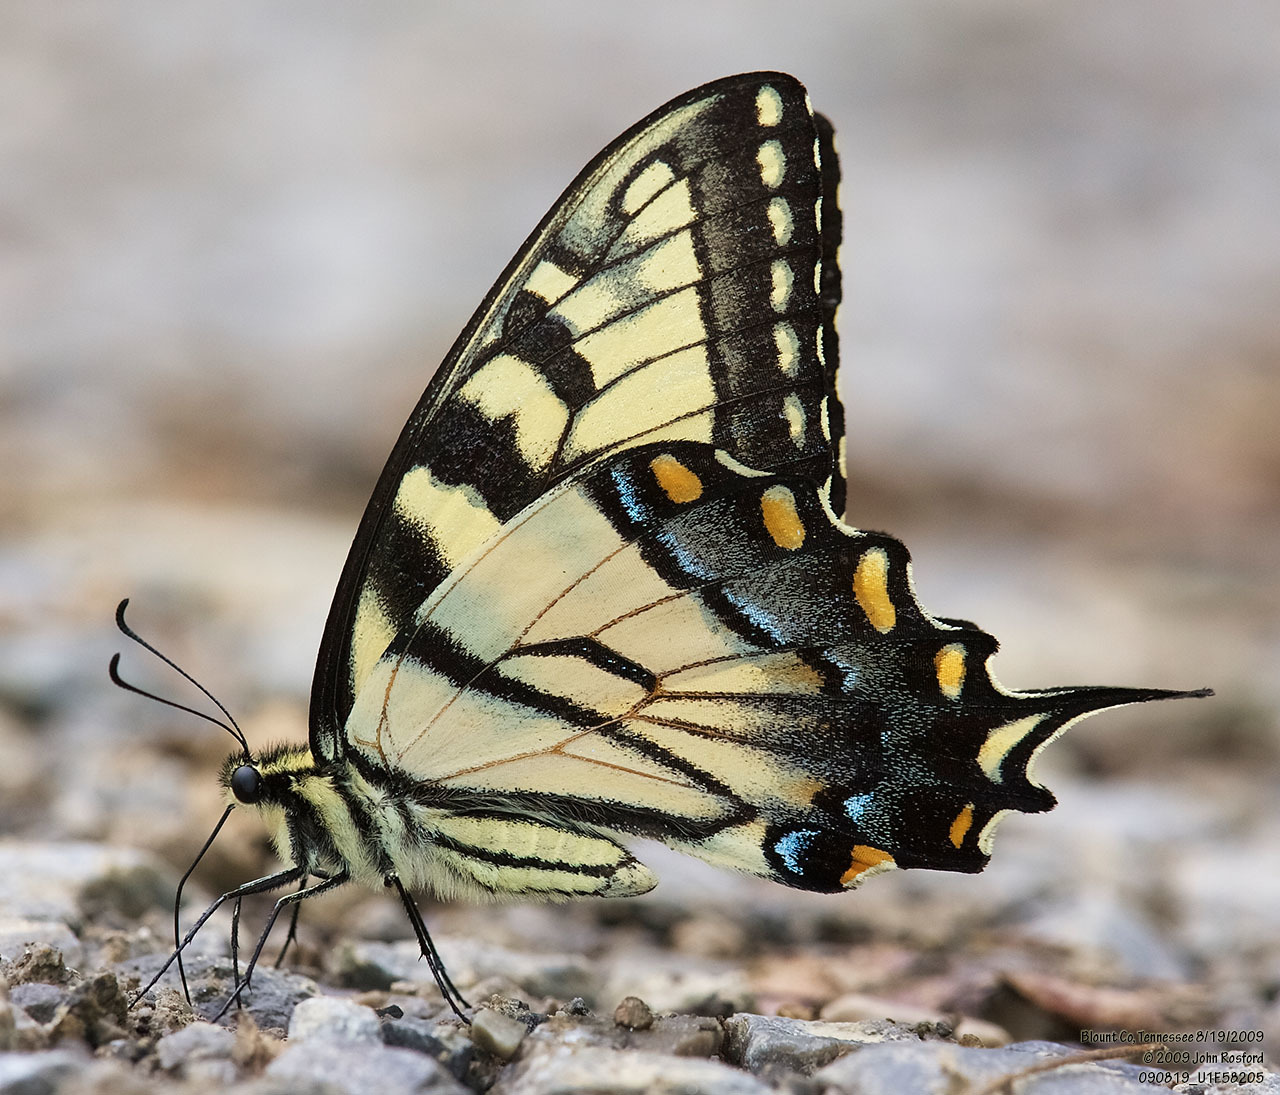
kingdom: Animalia
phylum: Arthropoda
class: Insecta
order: Lepidoptera
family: Papilionidae
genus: Papilio
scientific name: Papilio glaucus
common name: Tiger swallowtail
